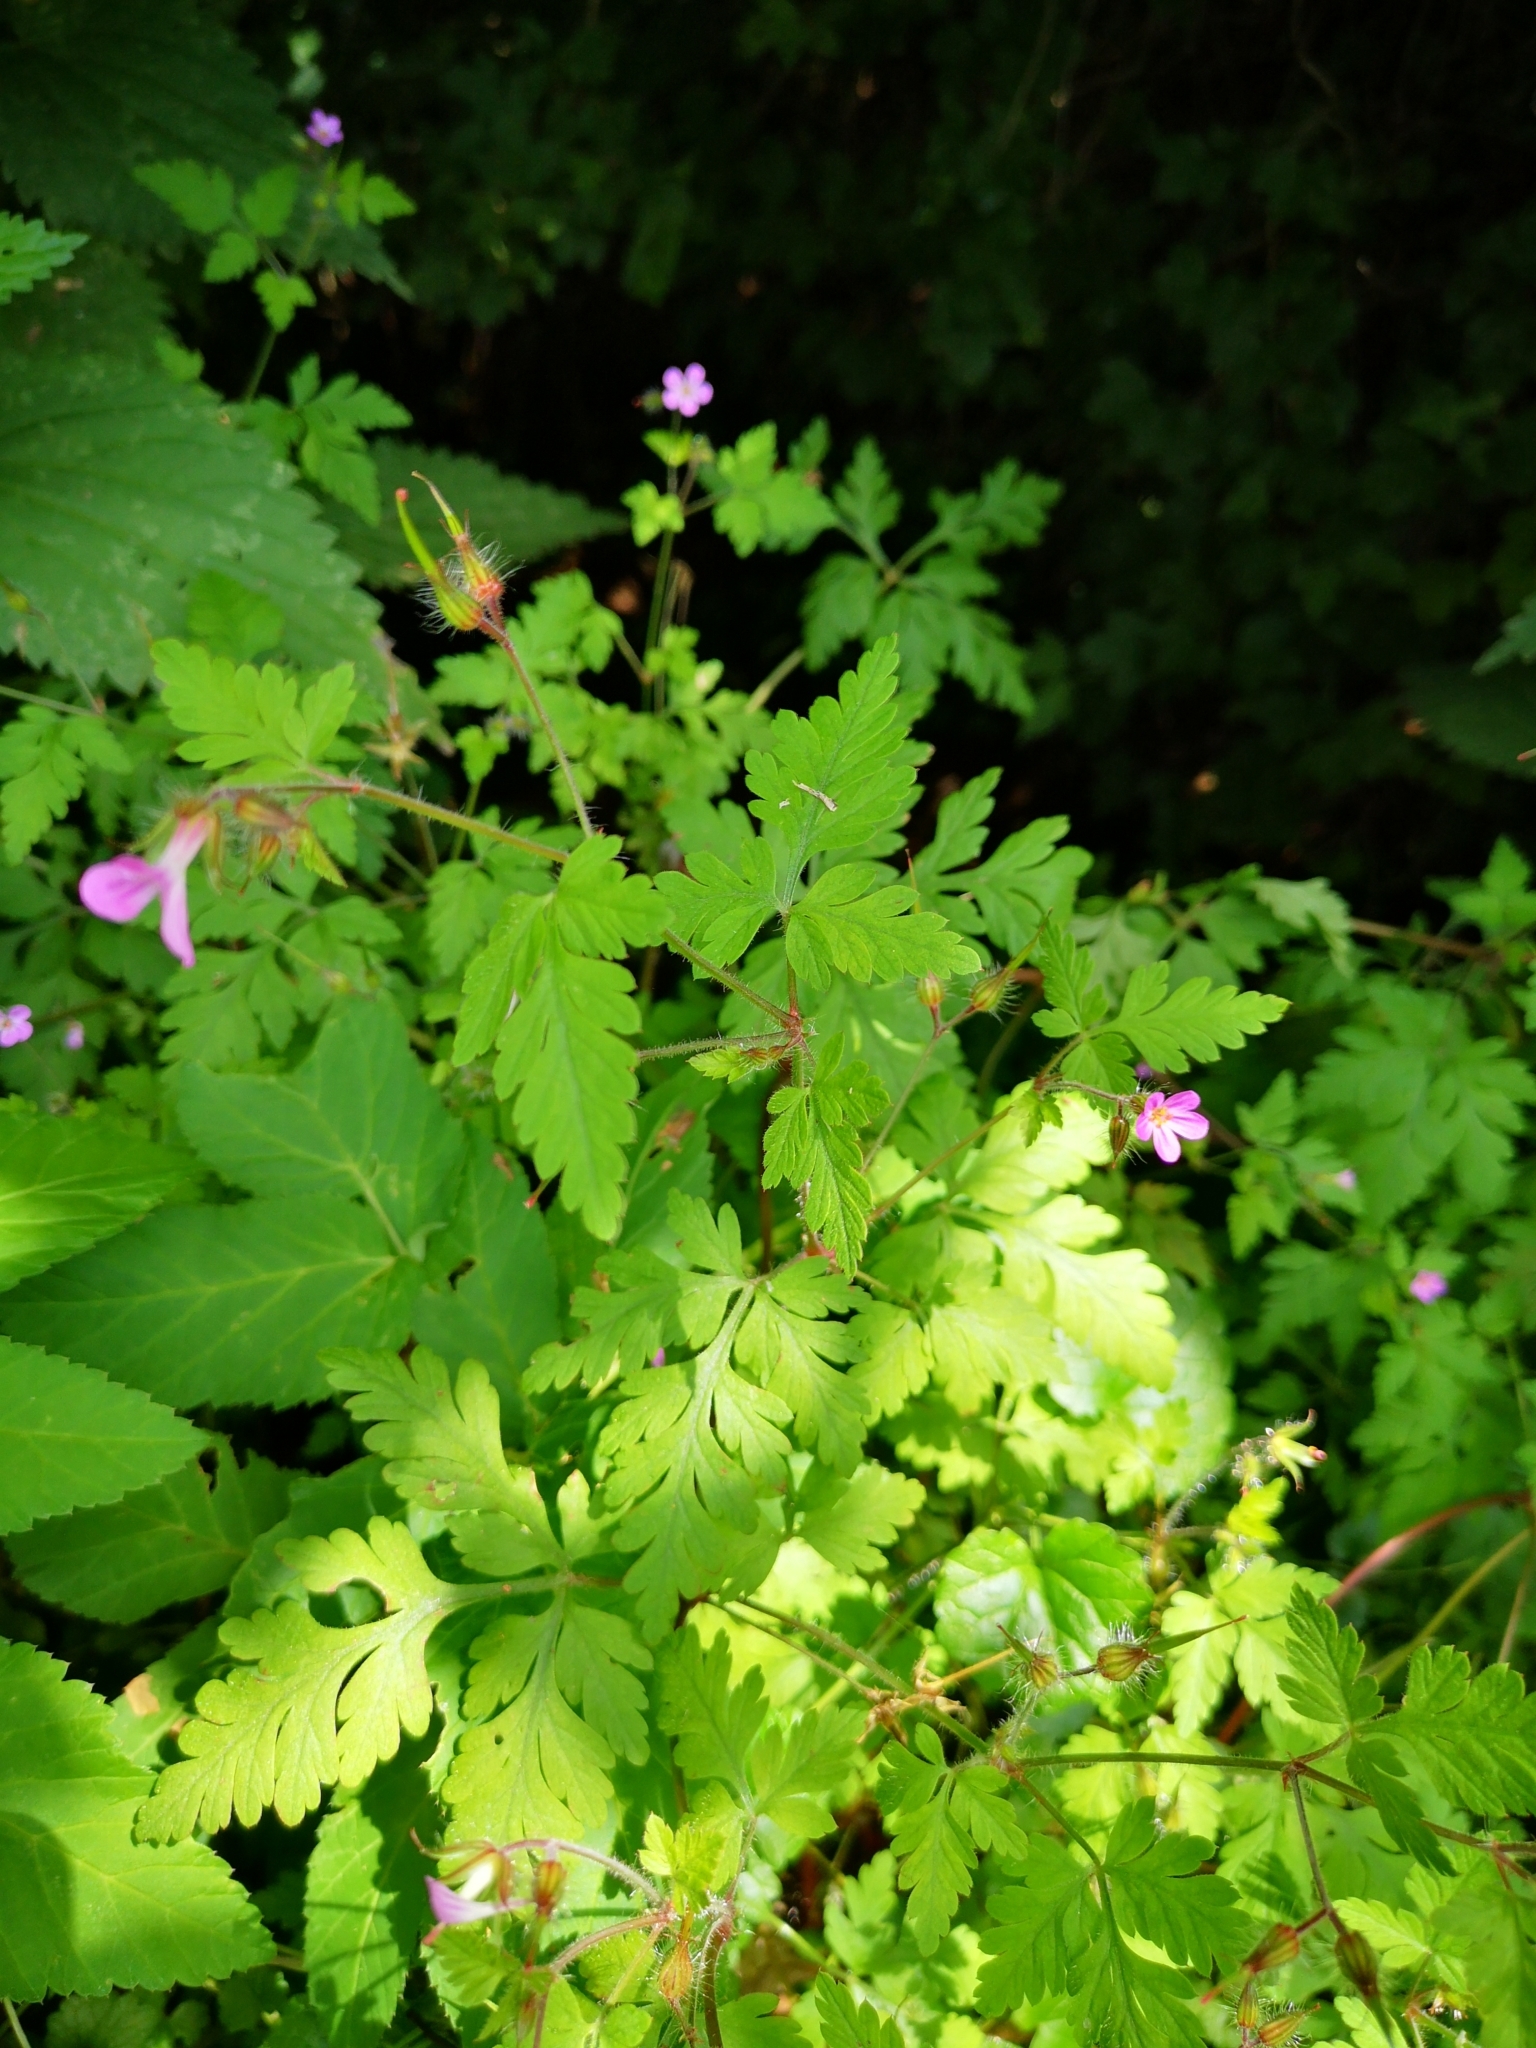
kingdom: Plantae
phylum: Tracheophyta
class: Magnoliopsida
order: Geraniales
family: Geraniaceae
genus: Geranium
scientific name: Geranium robertianum
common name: Herb-robert
